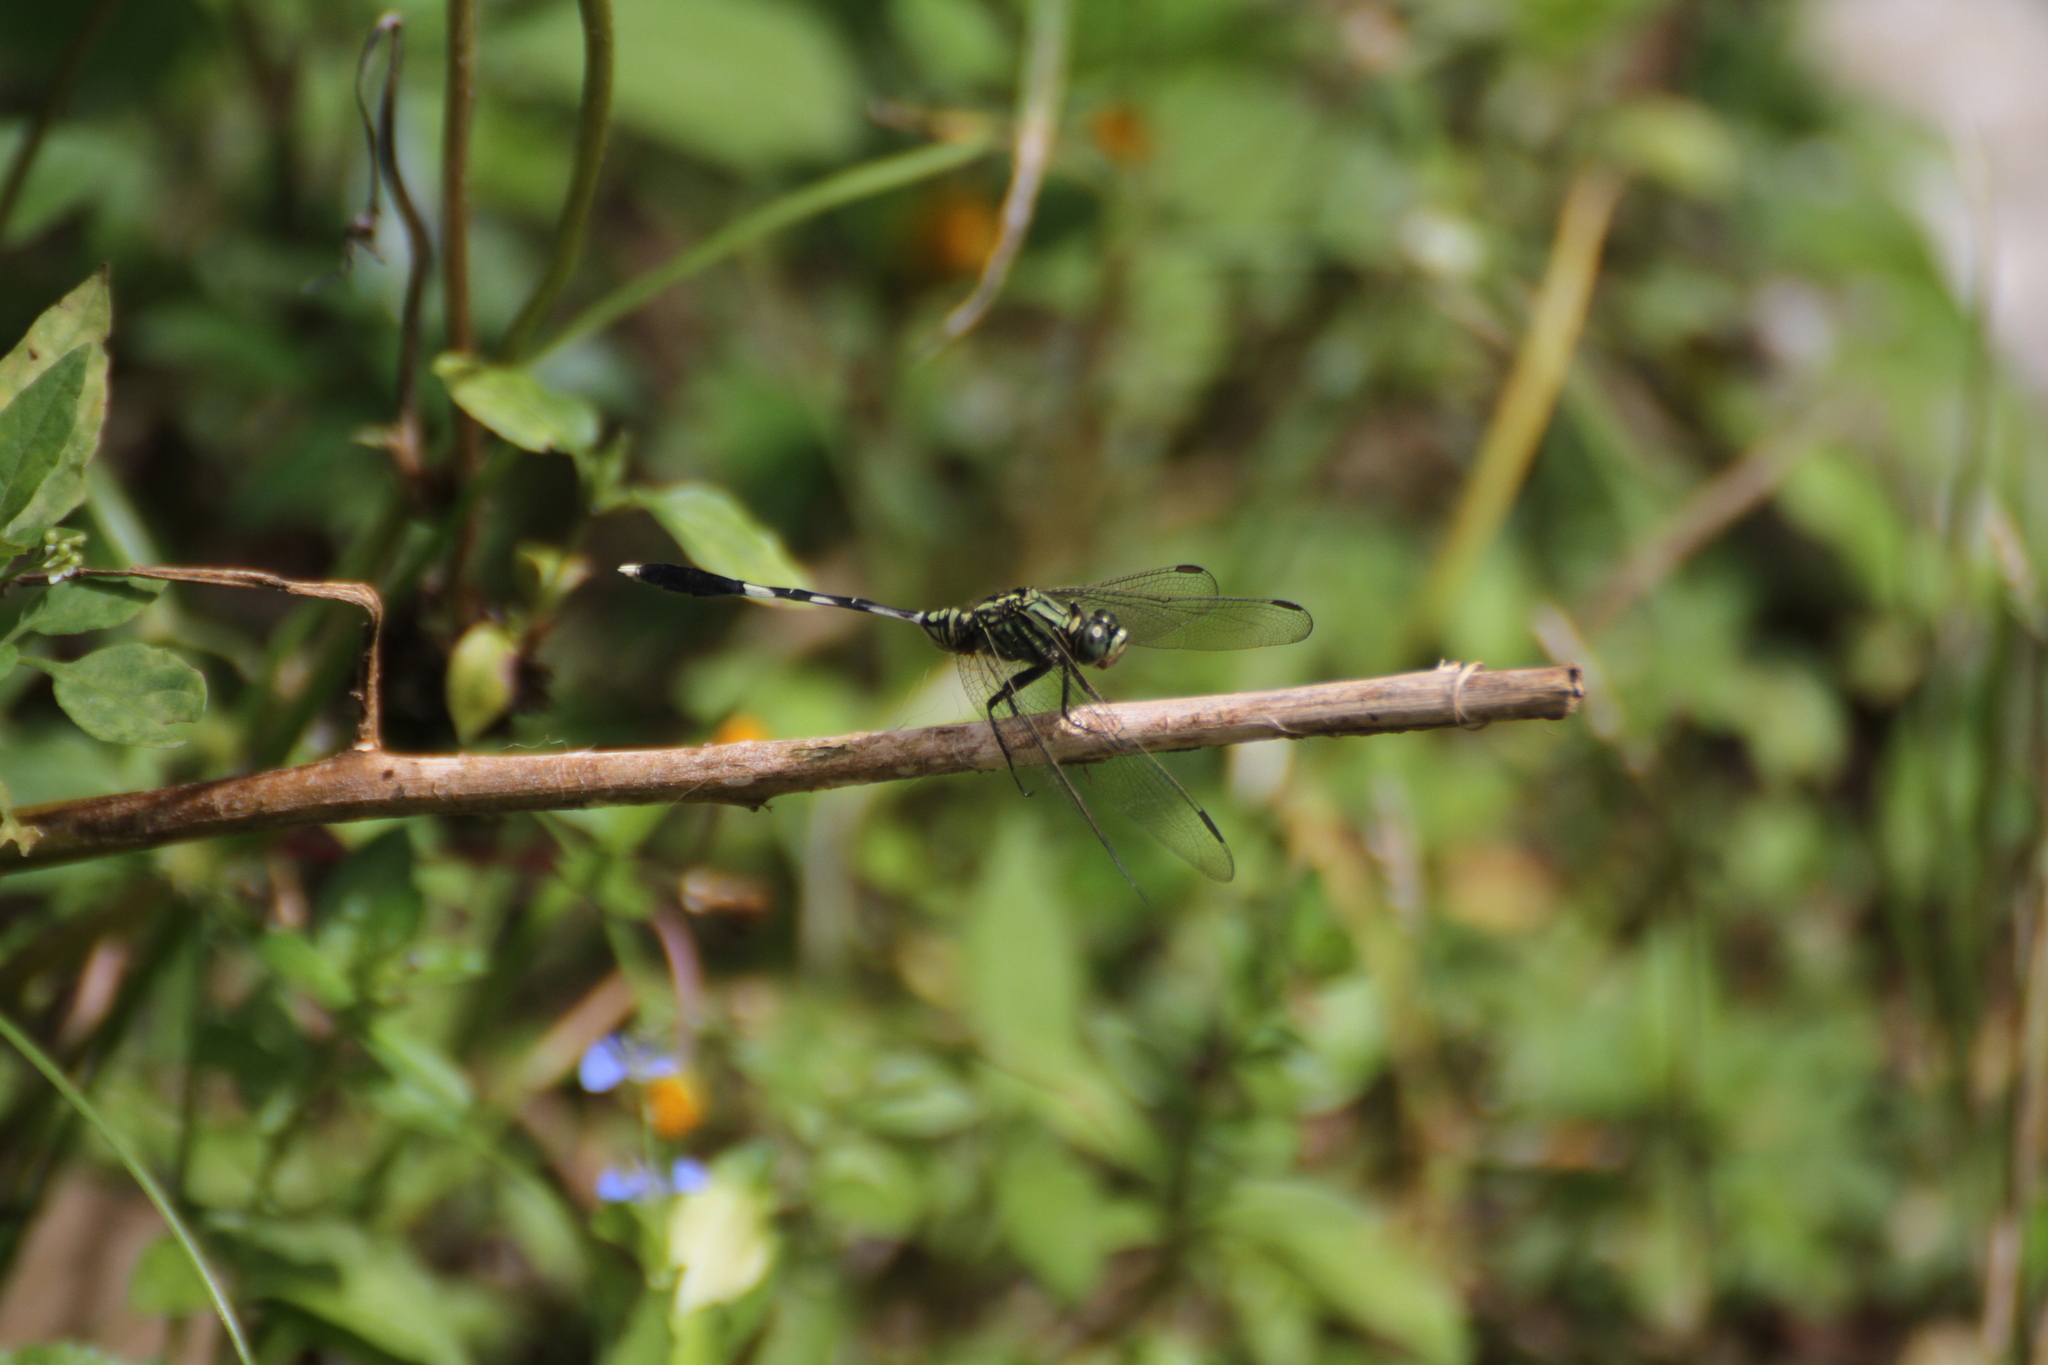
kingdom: Animalia
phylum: Arthropoda
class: Insecta
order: Odonata
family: Libellulidae
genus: Orthetrum
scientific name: Orthetrum sabina
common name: Slender skimmer
